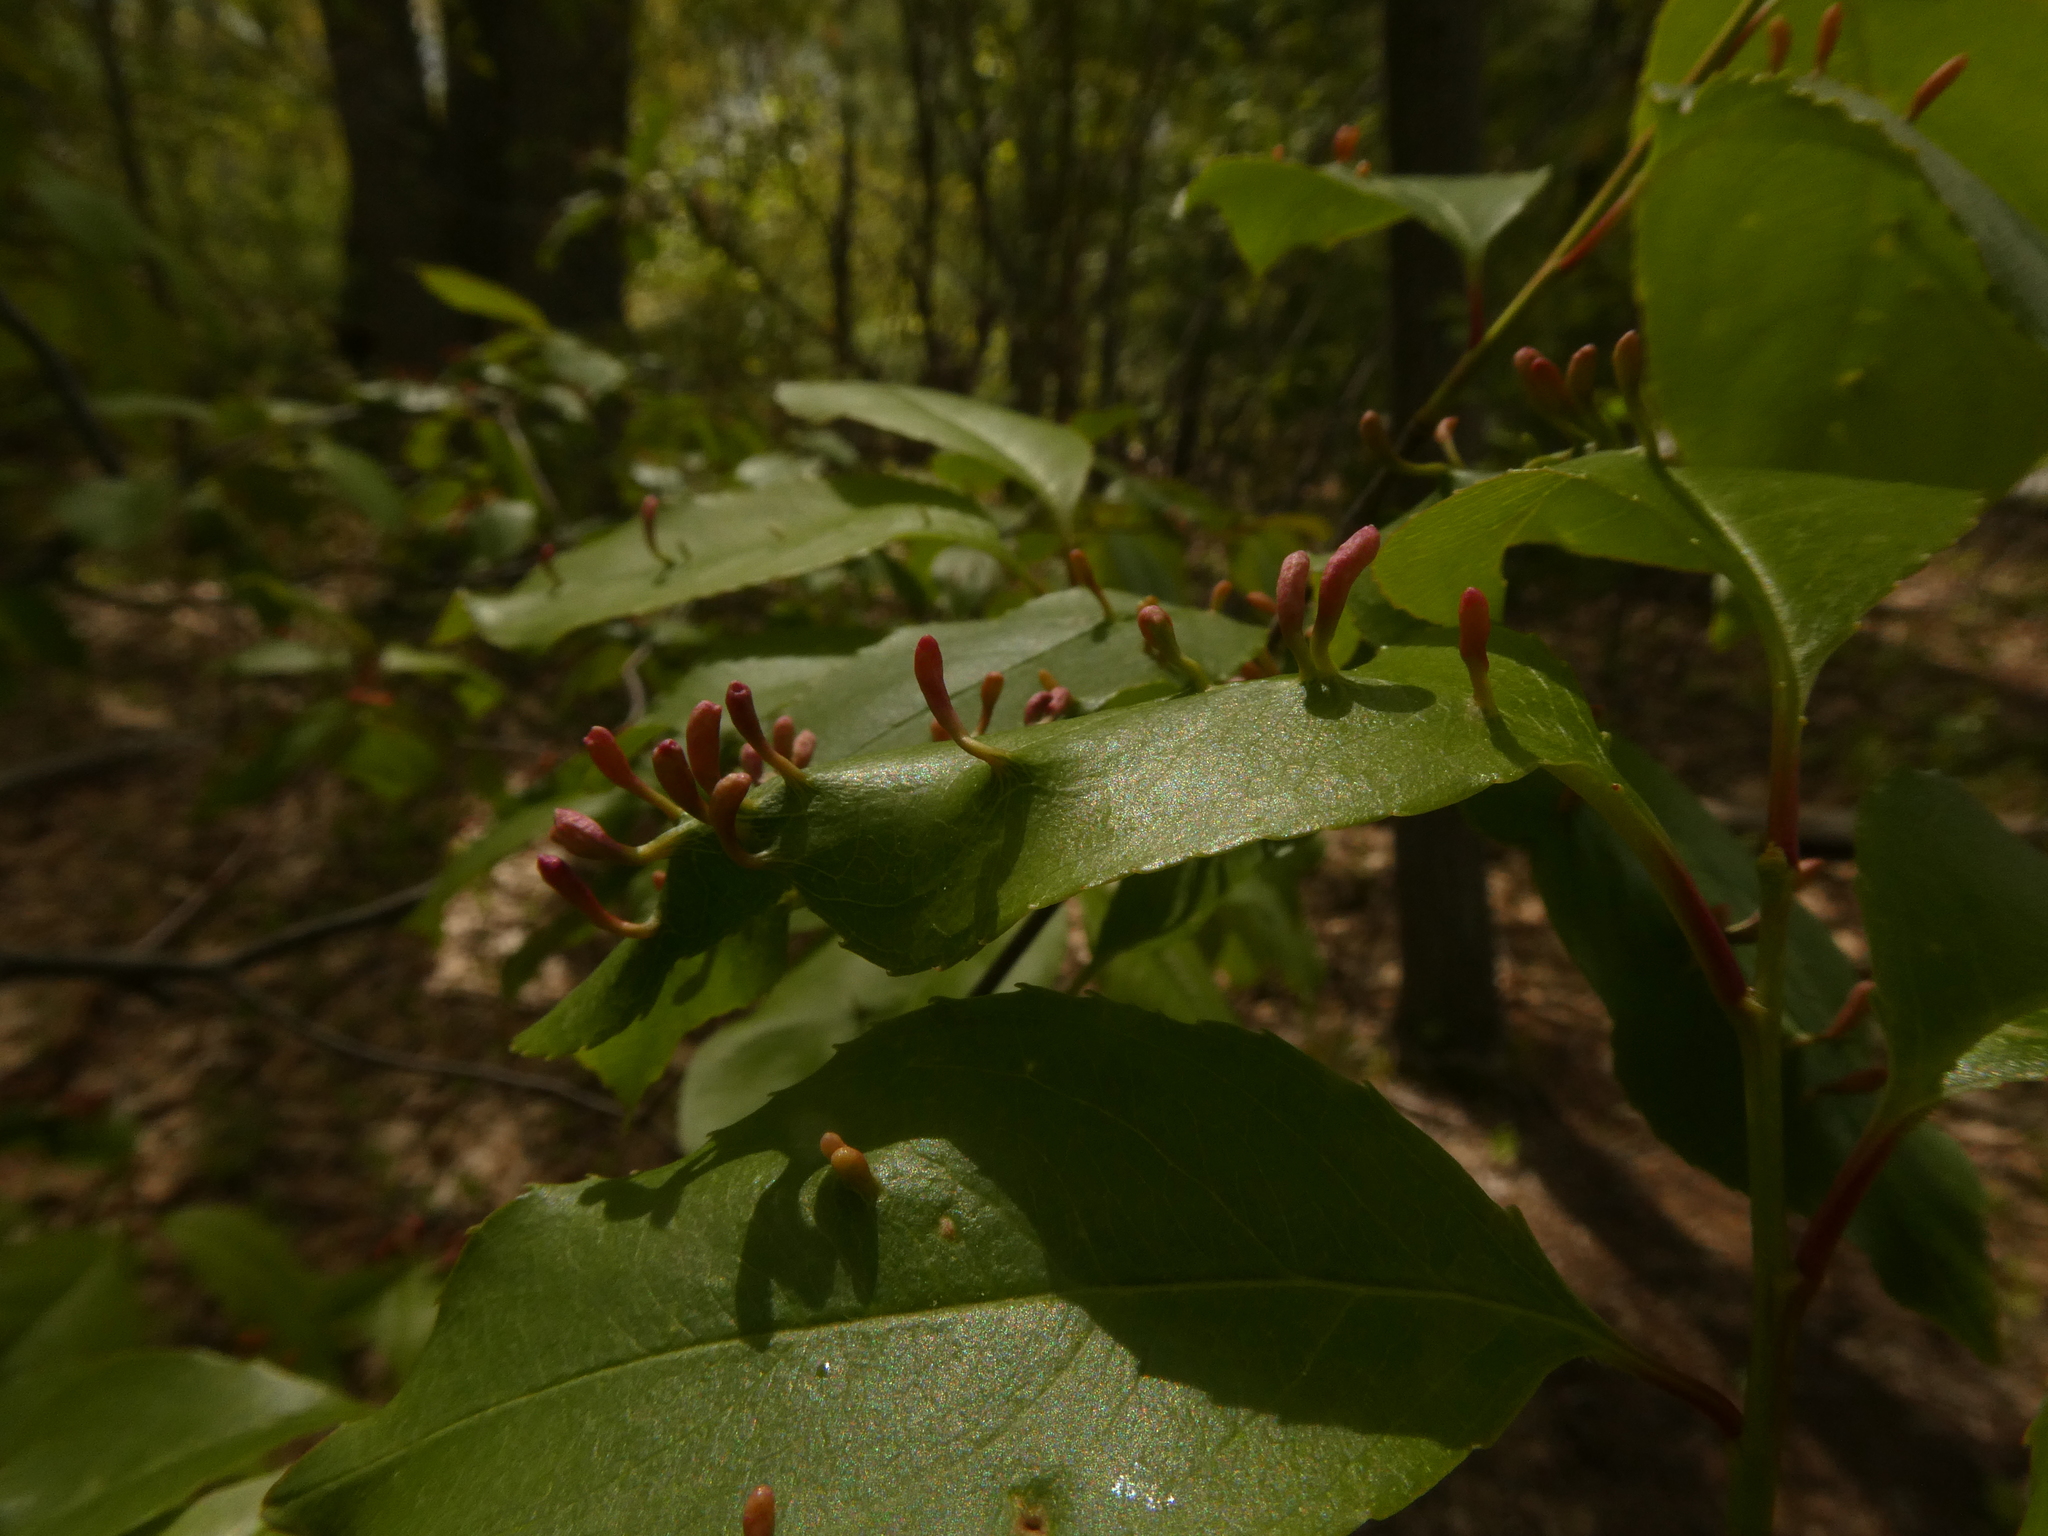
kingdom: Animalia
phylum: Arthropoda
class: Arachnida
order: Trombidiformes
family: Eriophyidae
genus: Eriophyes
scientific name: Eriophyes
